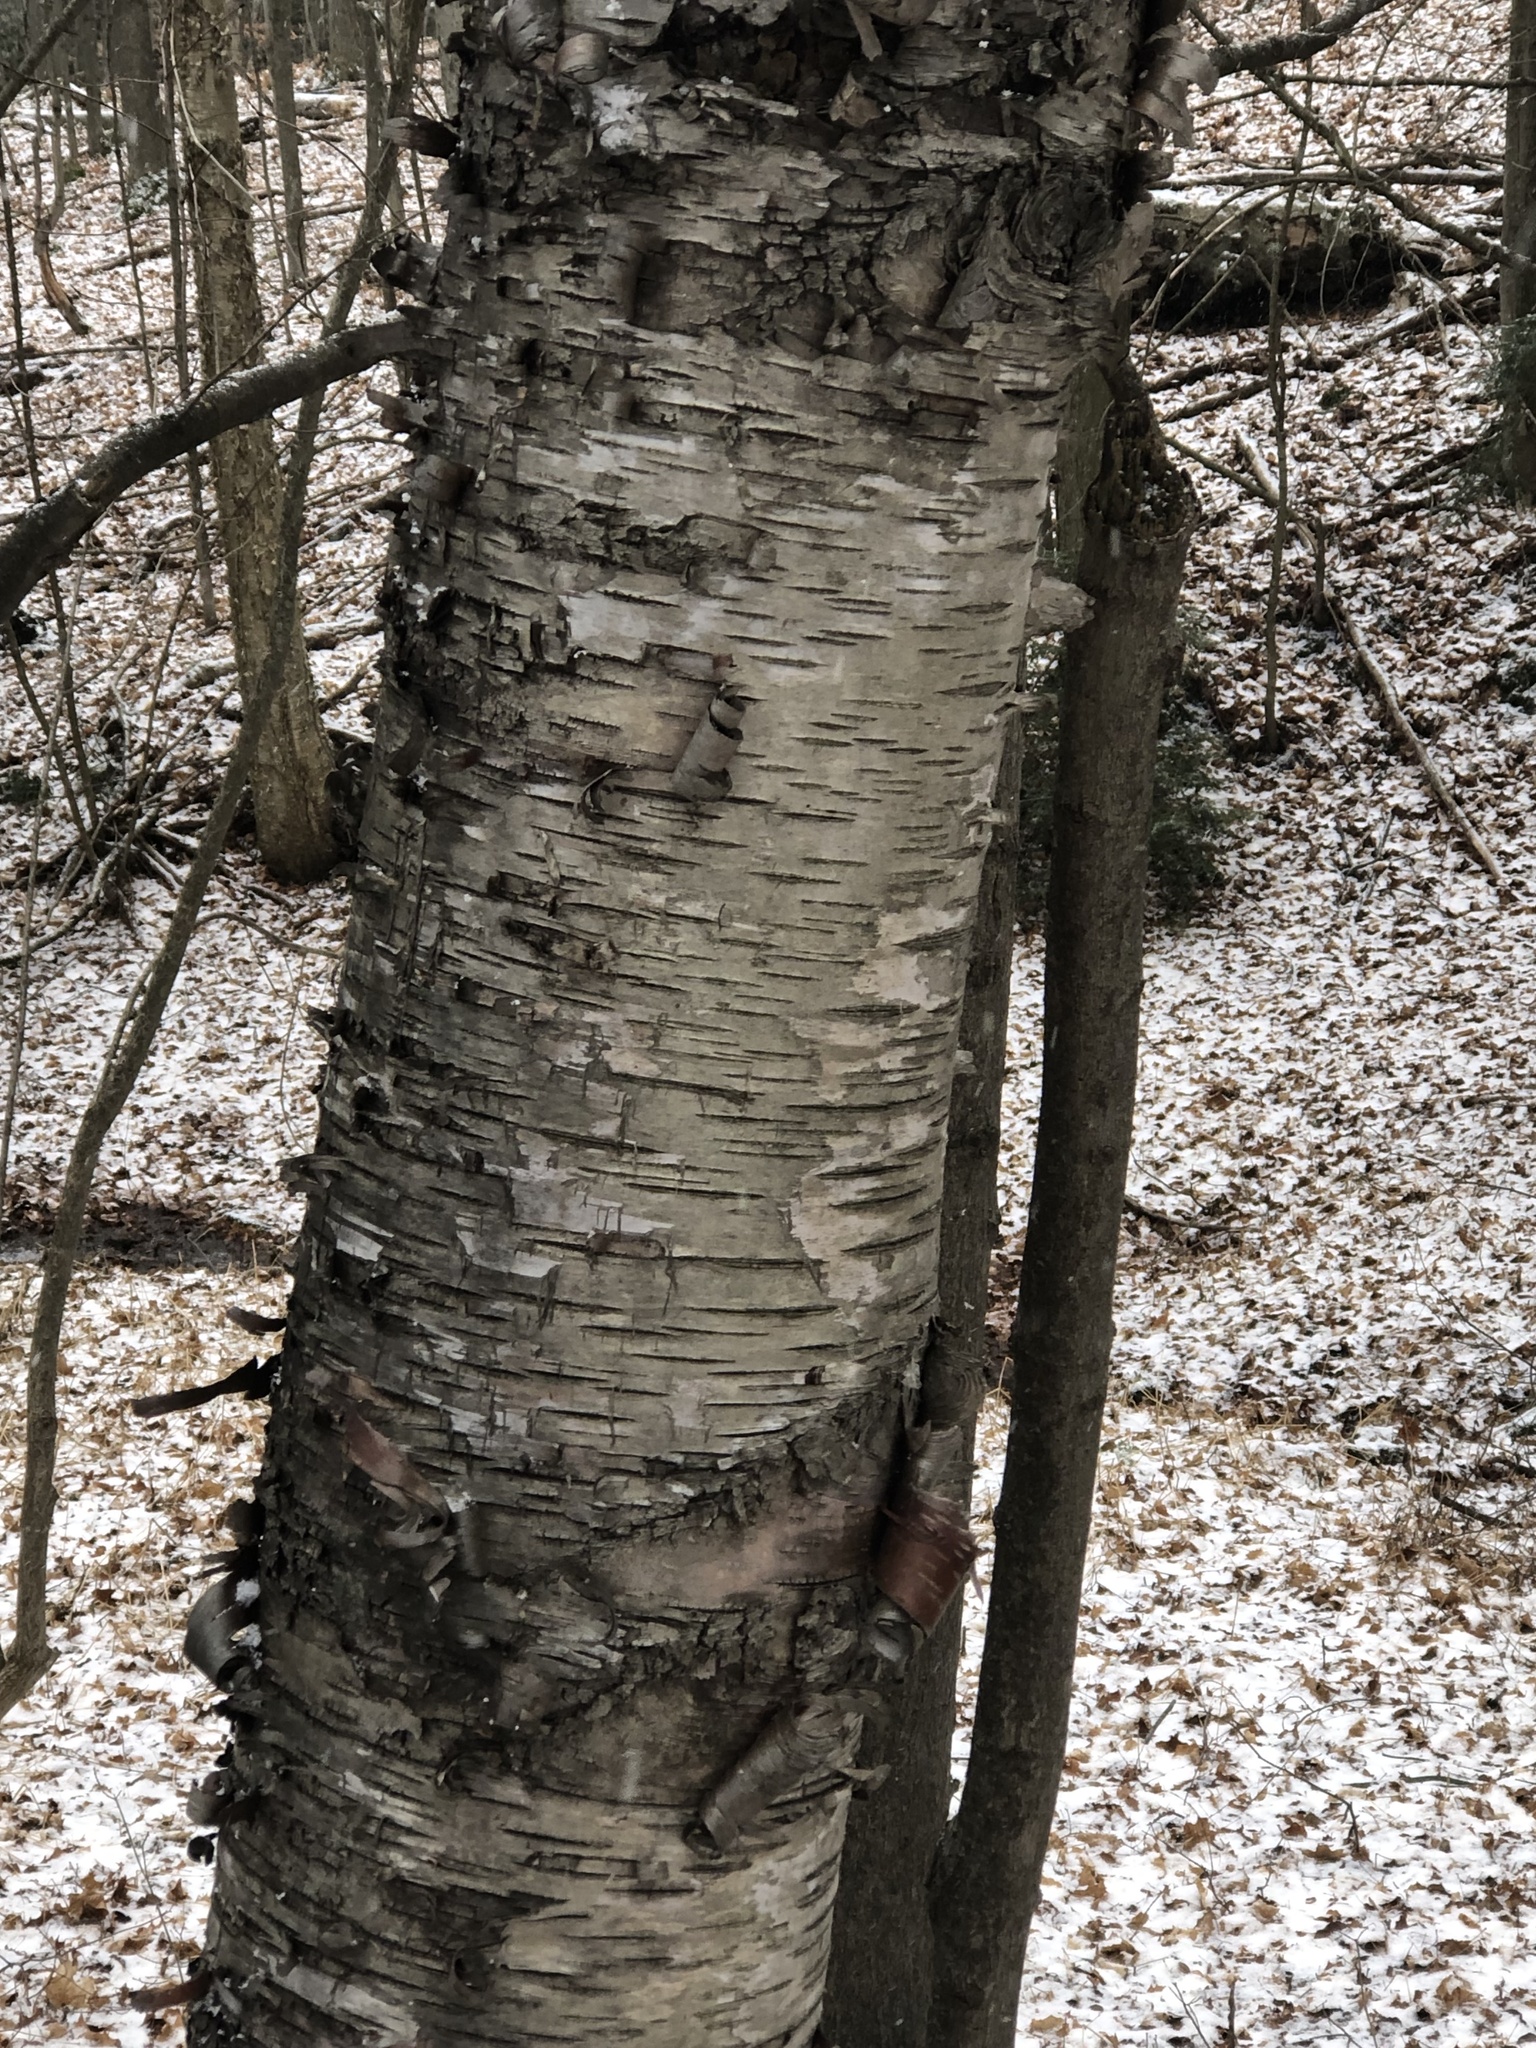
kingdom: Plantae
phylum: Tracheophyta
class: Magnoliopsida
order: Fagales
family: Betulaceae
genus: Betula
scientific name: Betula papyrifera
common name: Paper birch
